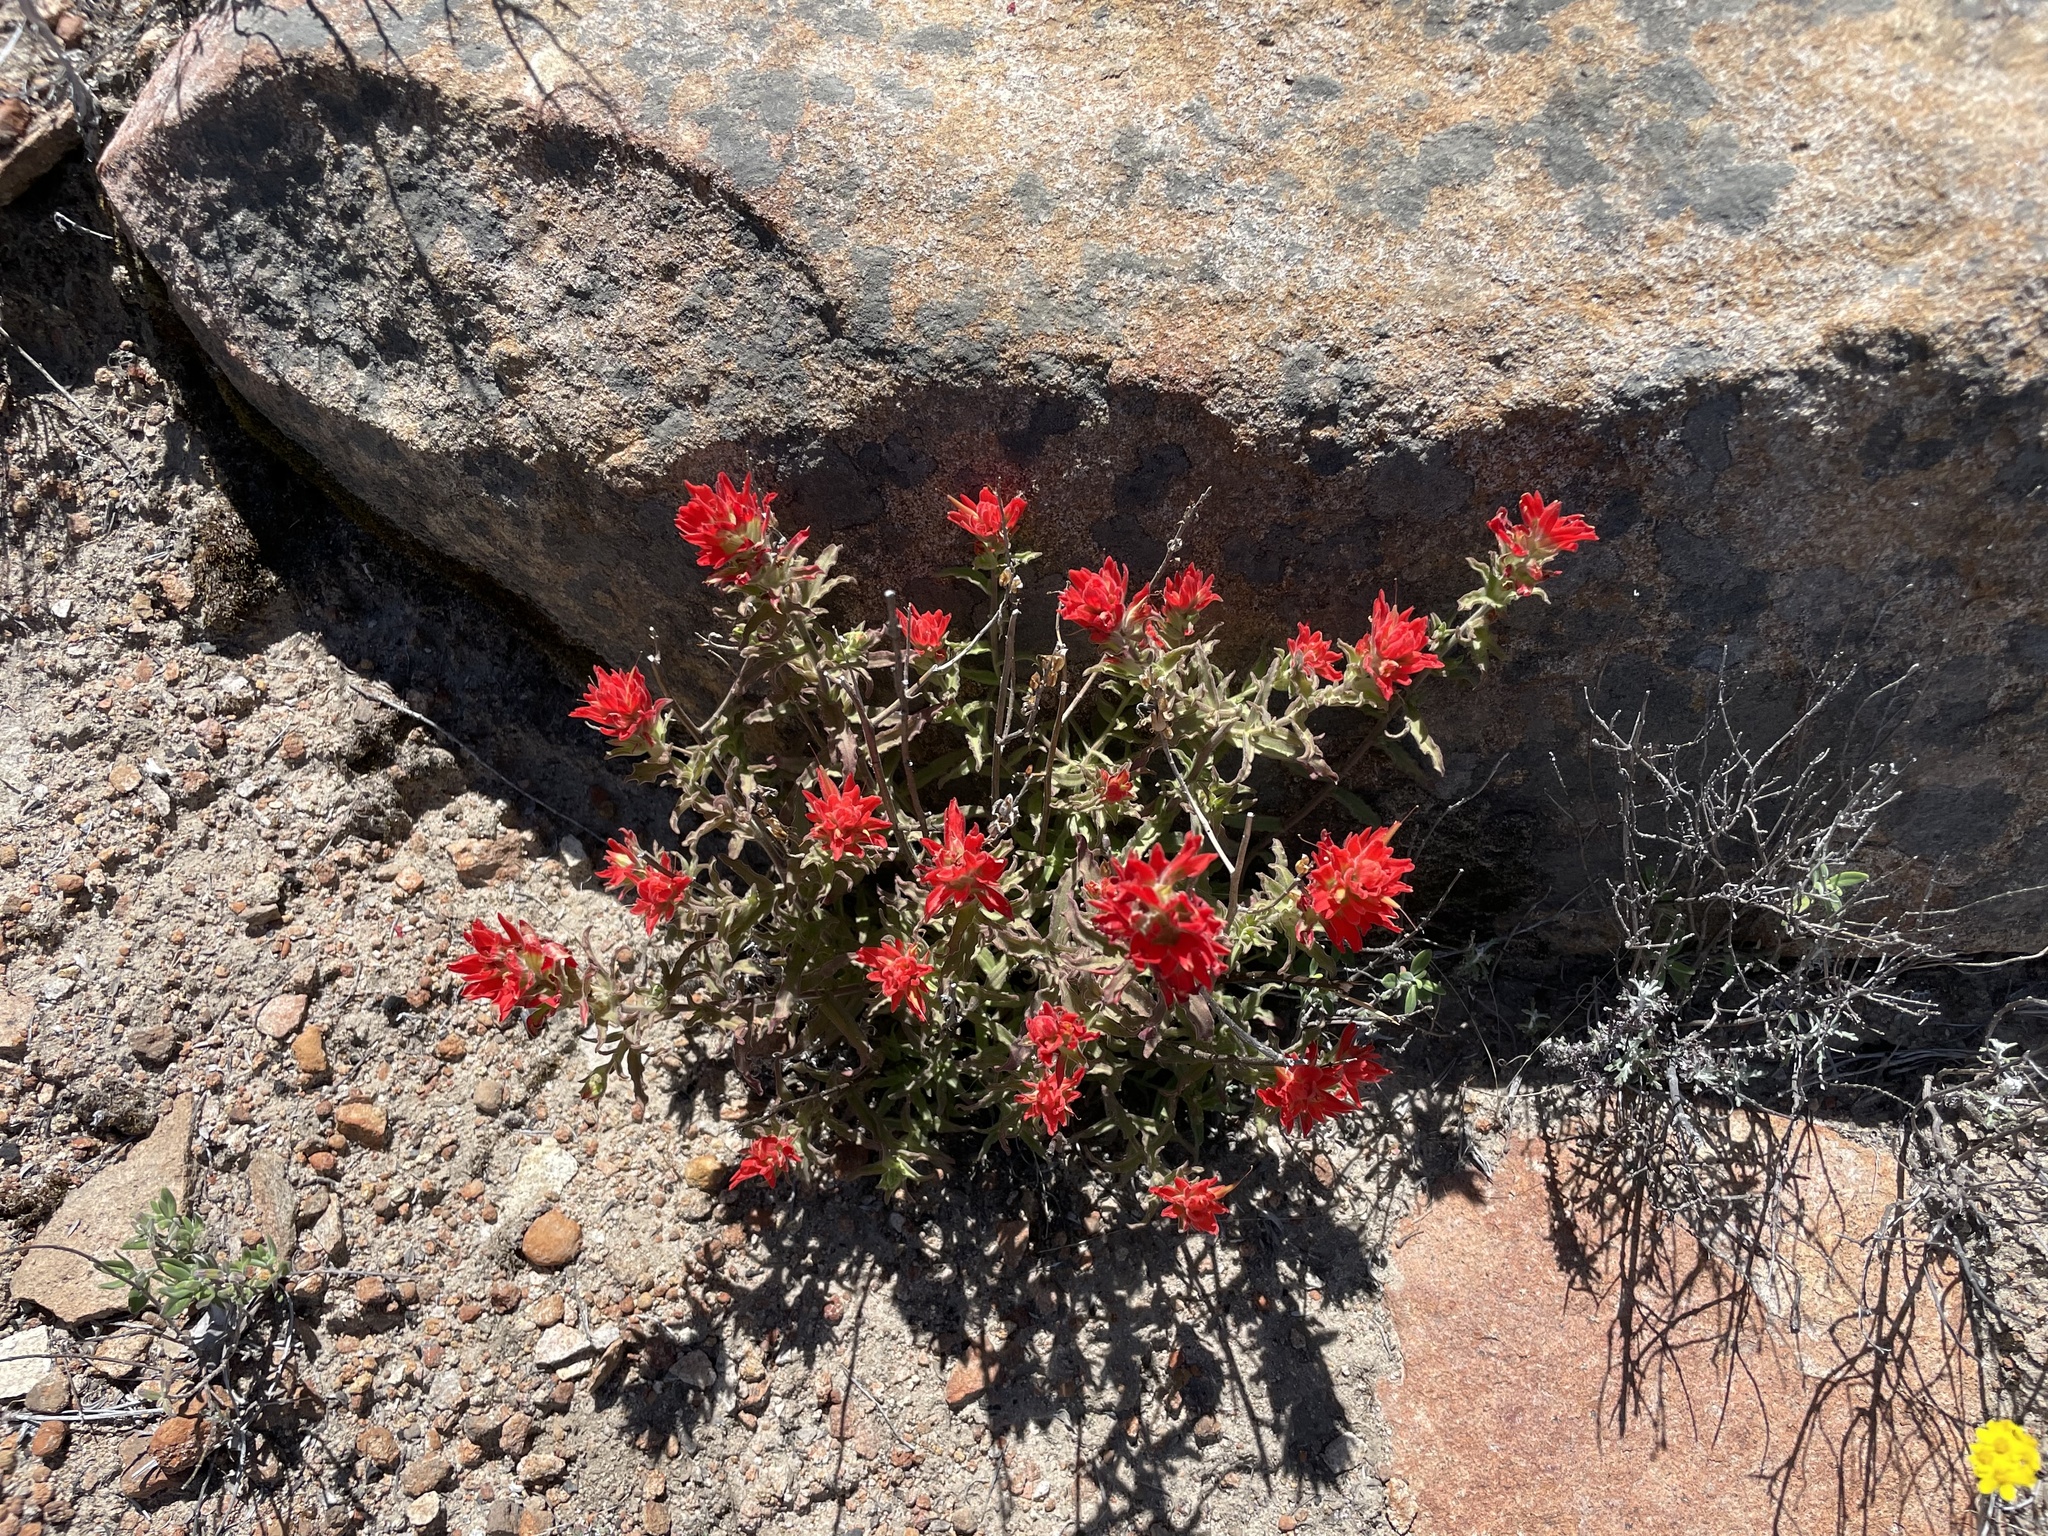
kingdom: Plantae
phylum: Tracheophyta
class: Magnoliopsida
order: Lamiales
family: Orobanchaceae
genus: Castilleja
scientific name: Castilleja martini
